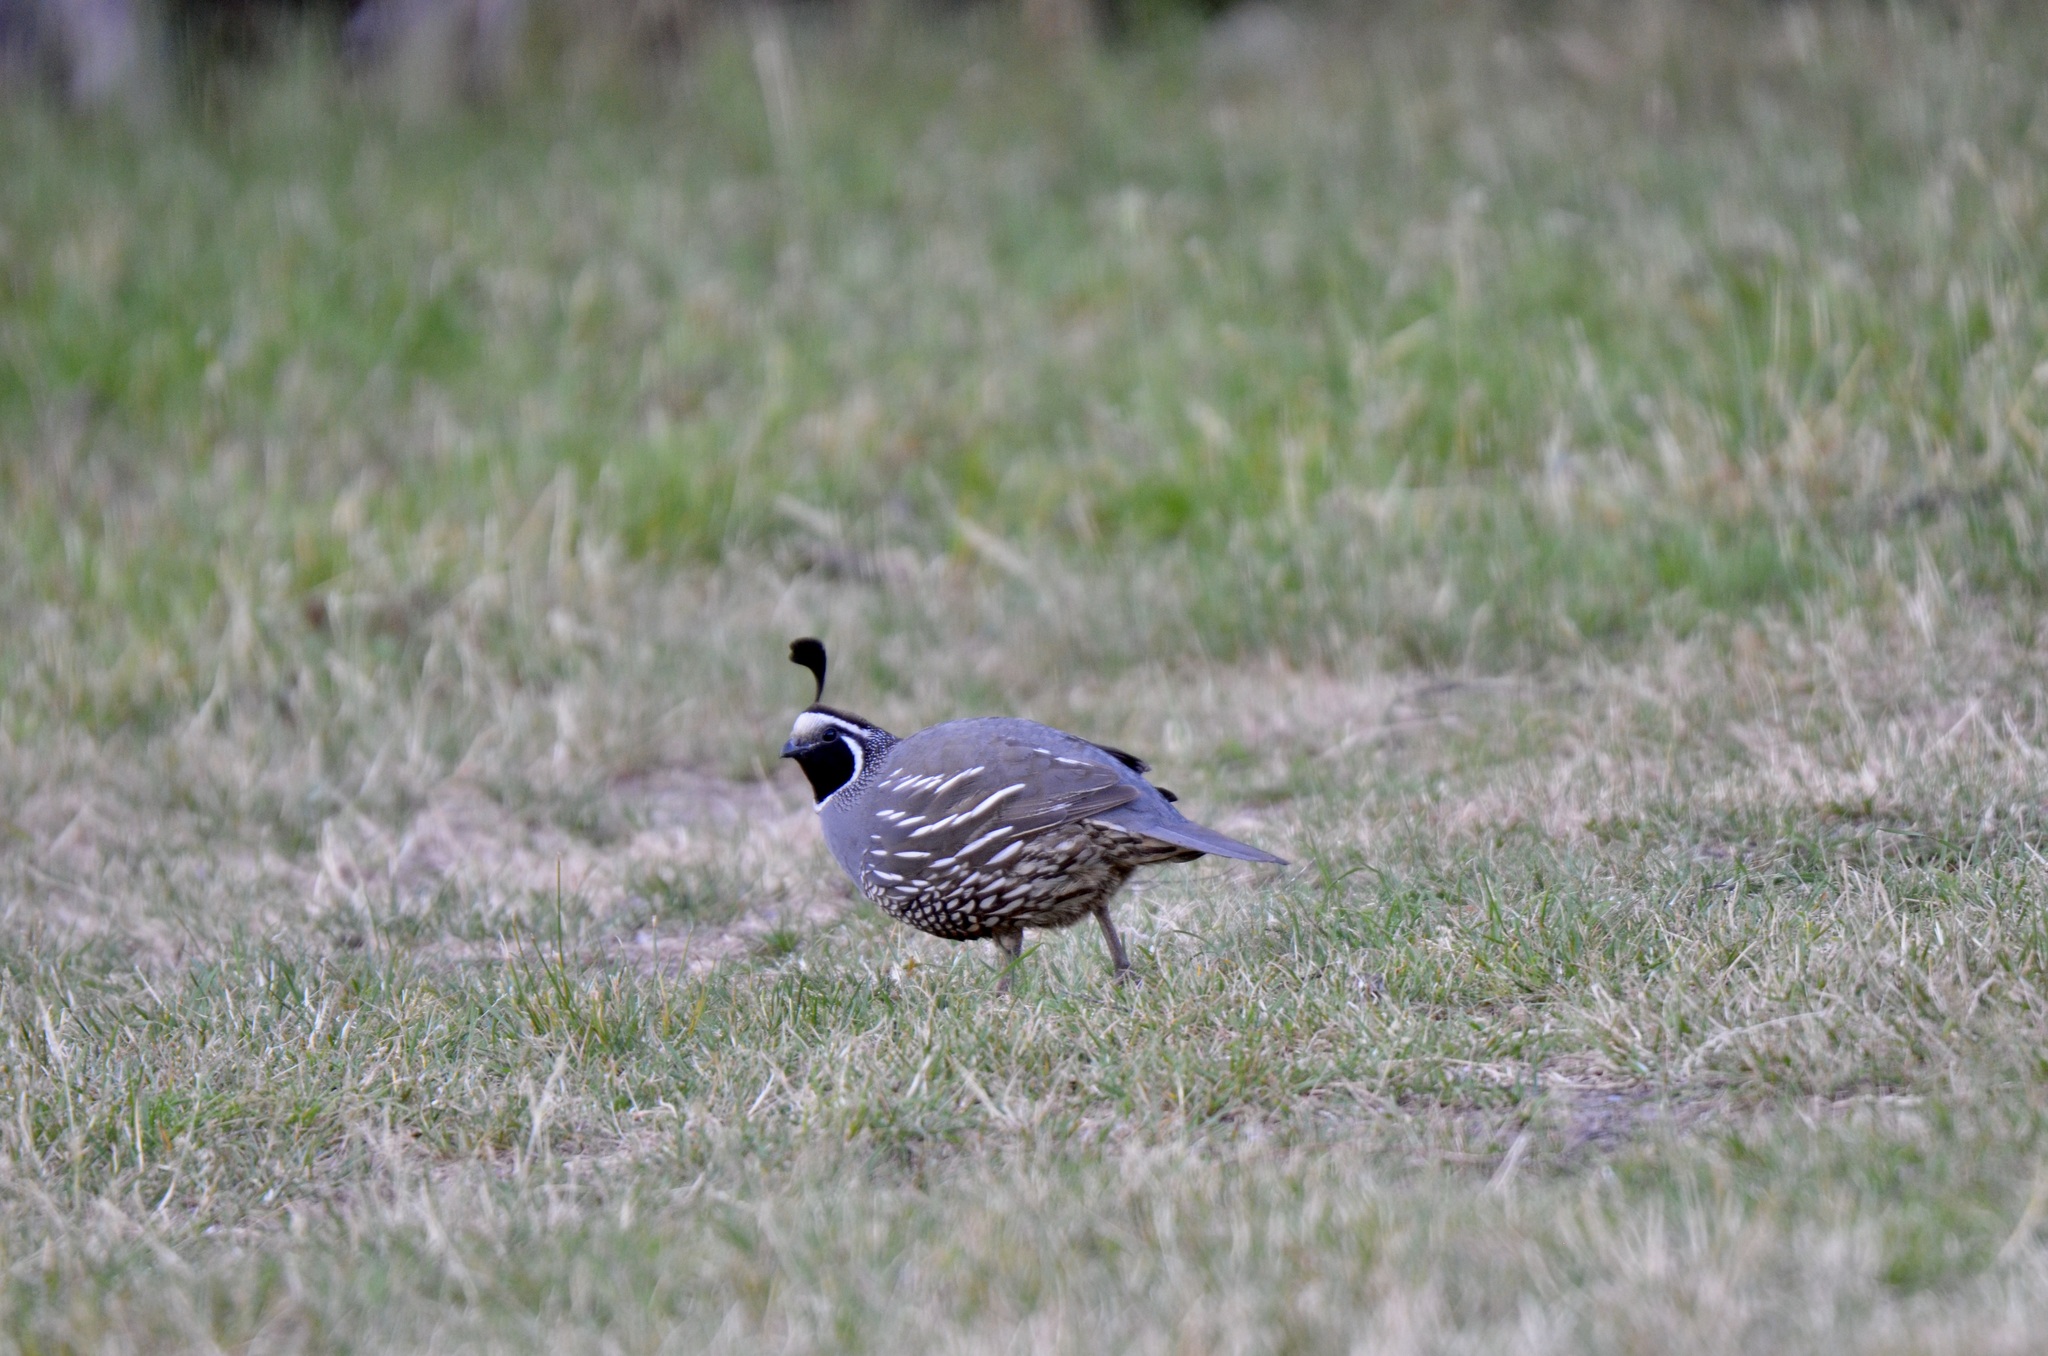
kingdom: Animalia
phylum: Chordata
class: Aves
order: Galliformes
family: Odontophoridae
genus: Callipepla
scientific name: Callipepla californica
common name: California quail
